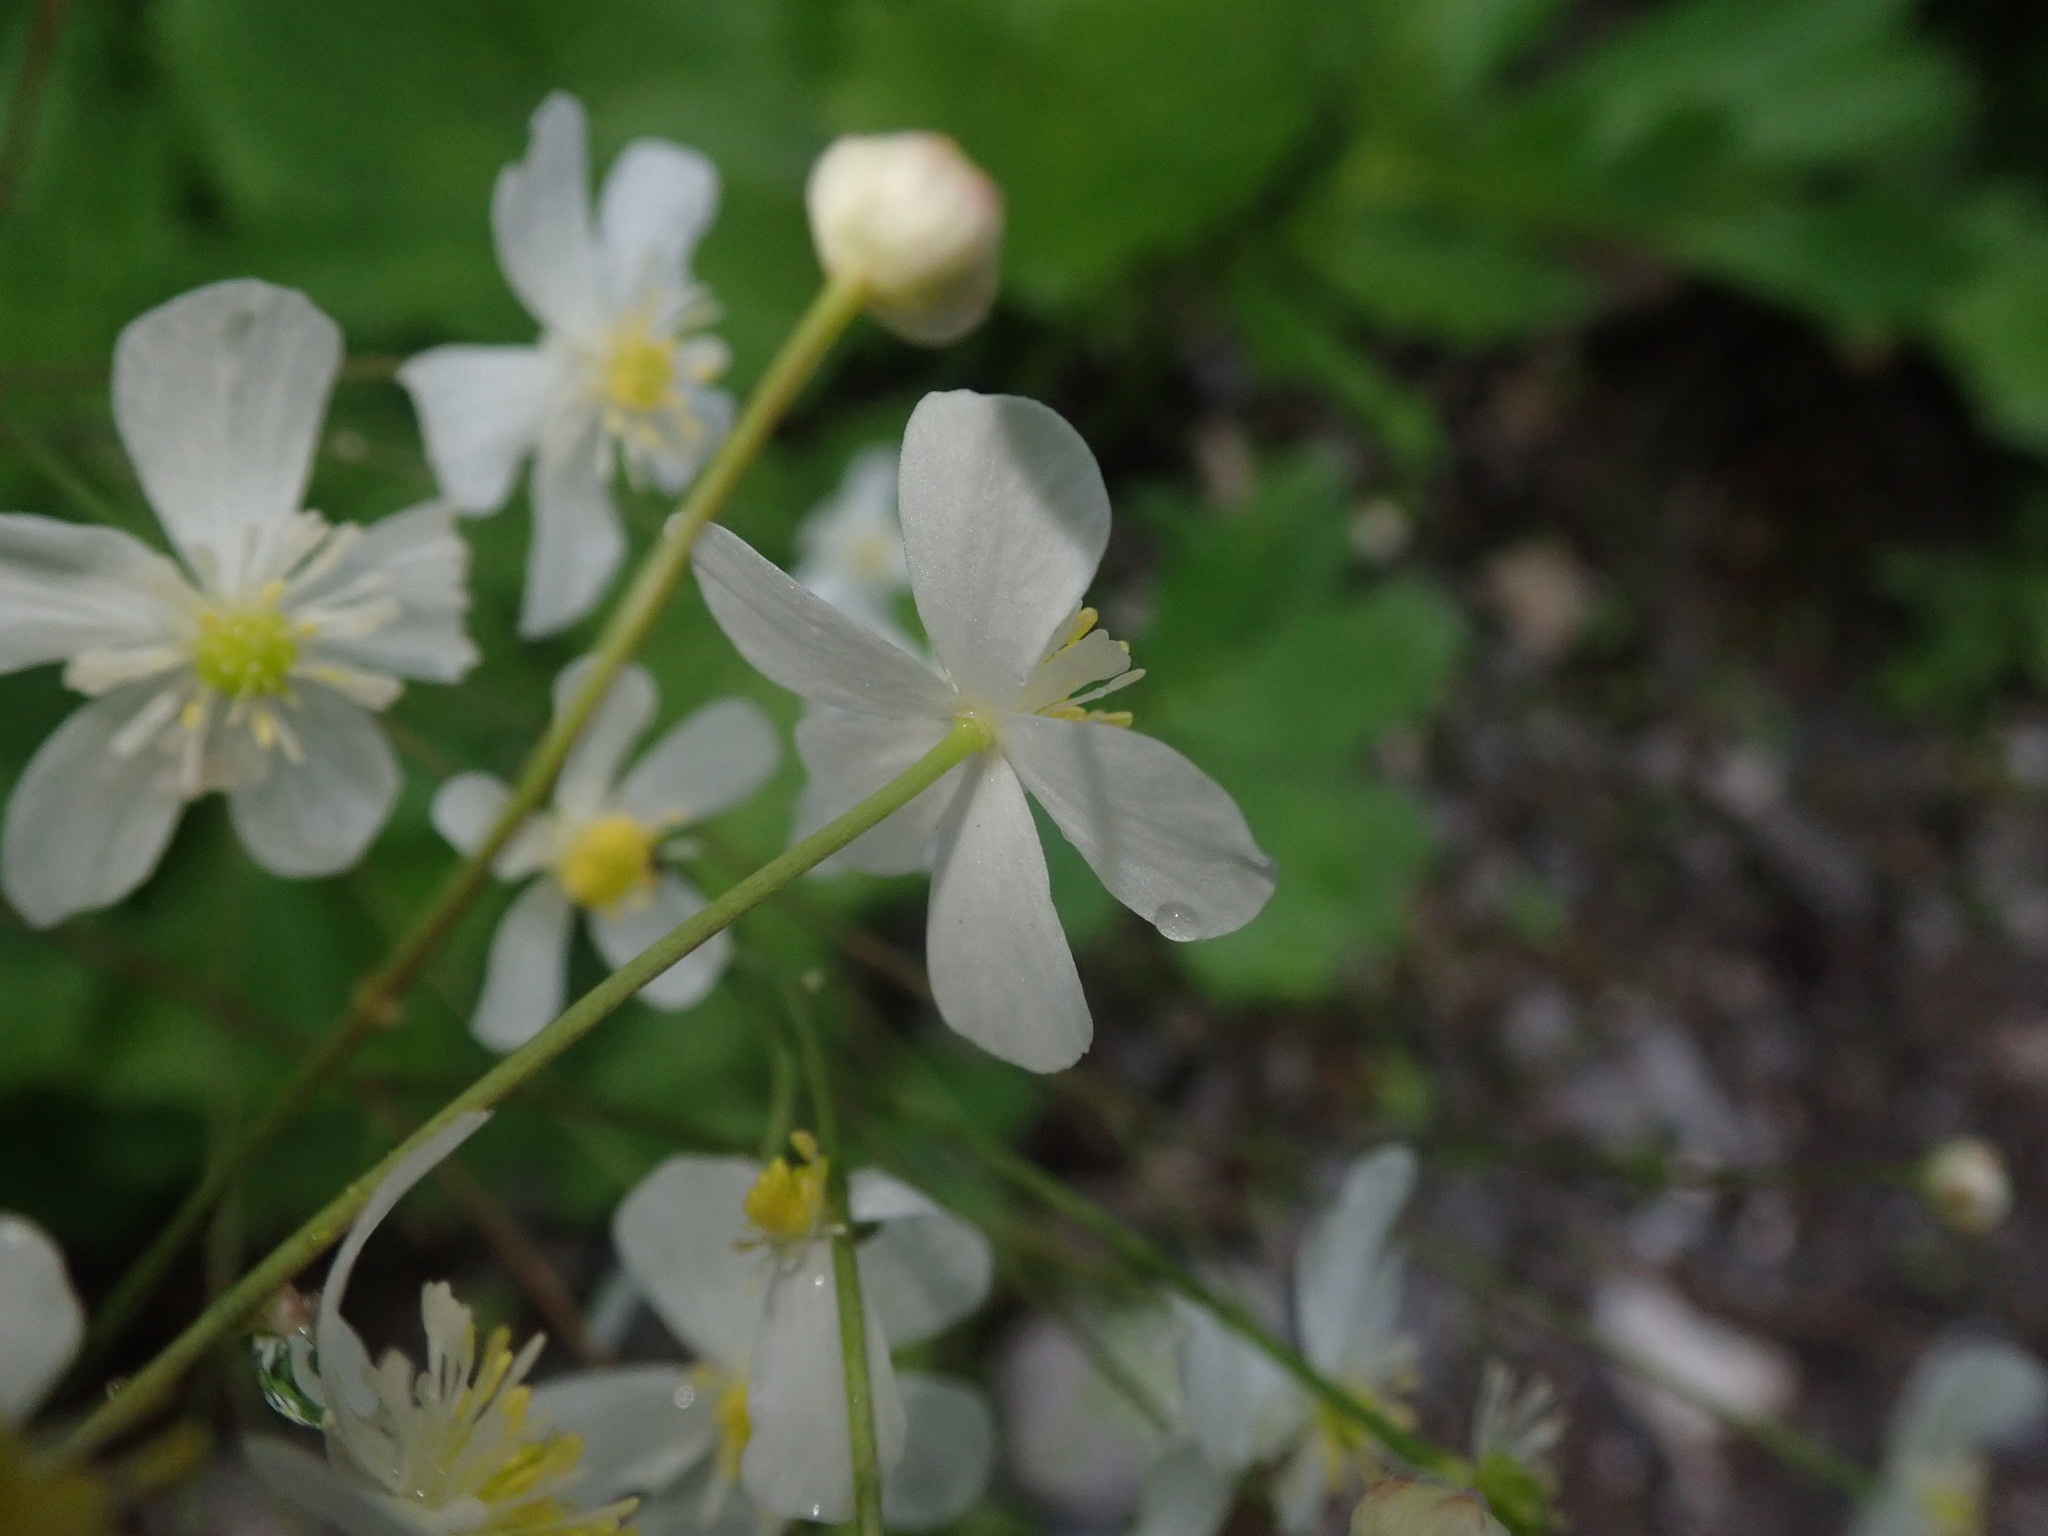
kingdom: Plantae
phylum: Tracheophyta
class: Magnoliopsida
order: Ranunculales
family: Ranunculaceae
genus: Ranunculus
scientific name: Ranunculus aconitifolius
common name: Aconite-leaved buttercup
